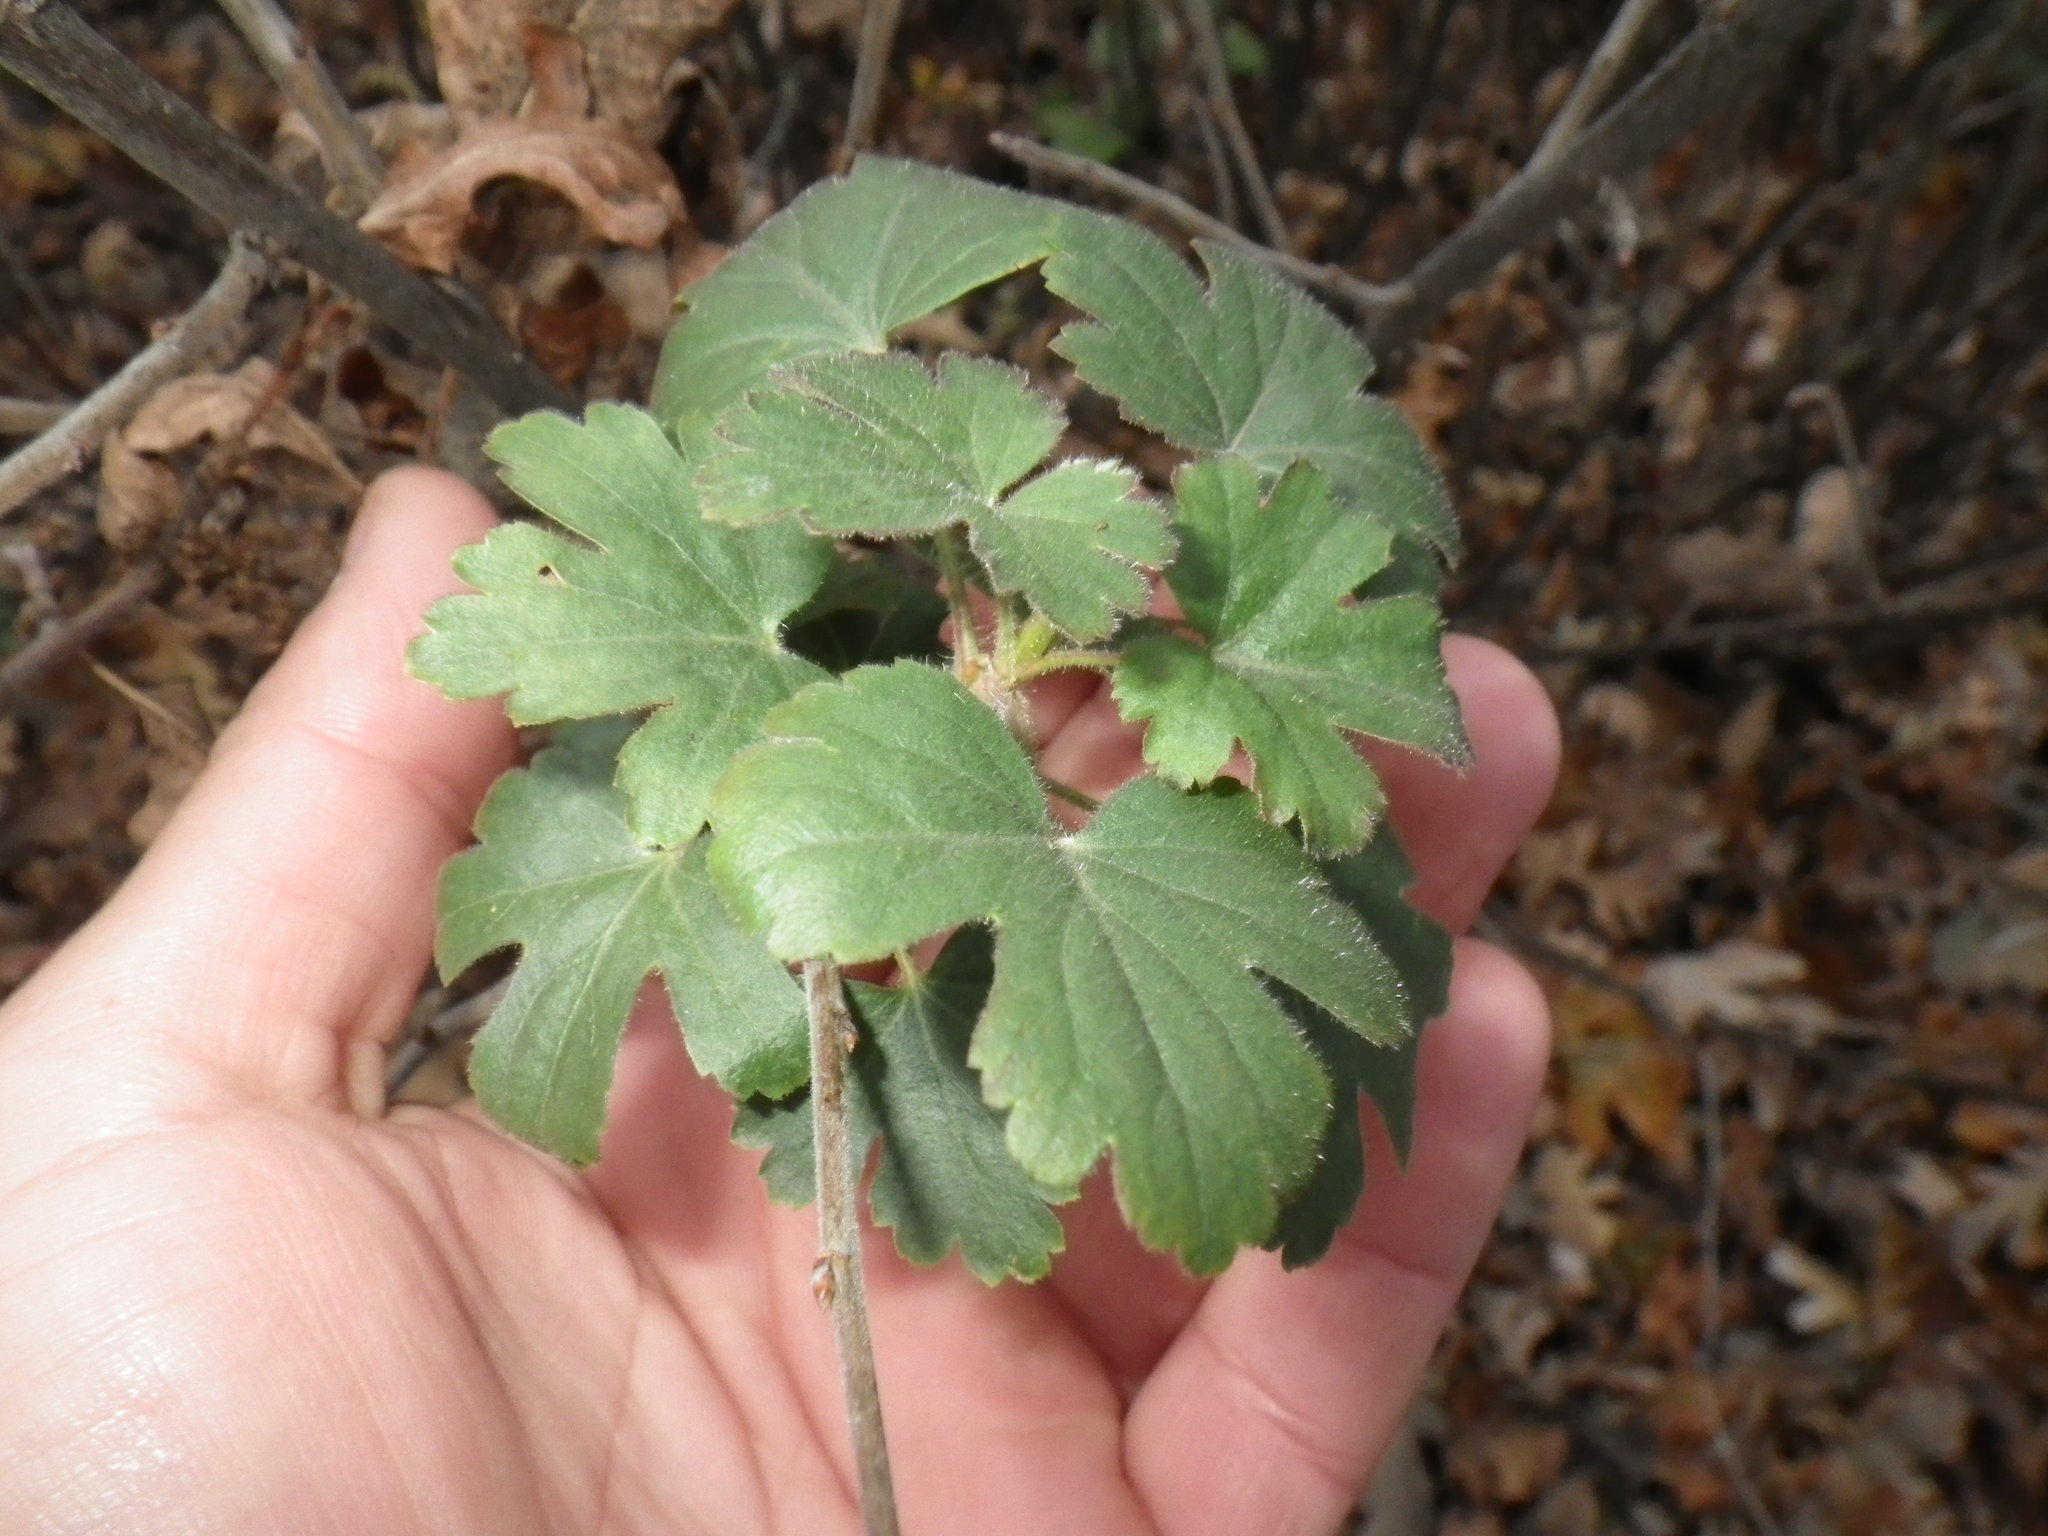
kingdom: Plantae
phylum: Tracheophyta
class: Magnoliopsida
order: Saxifragales
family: Grossulariaceae
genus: Ribes
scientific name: Ribes aureum
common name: Golden currant
